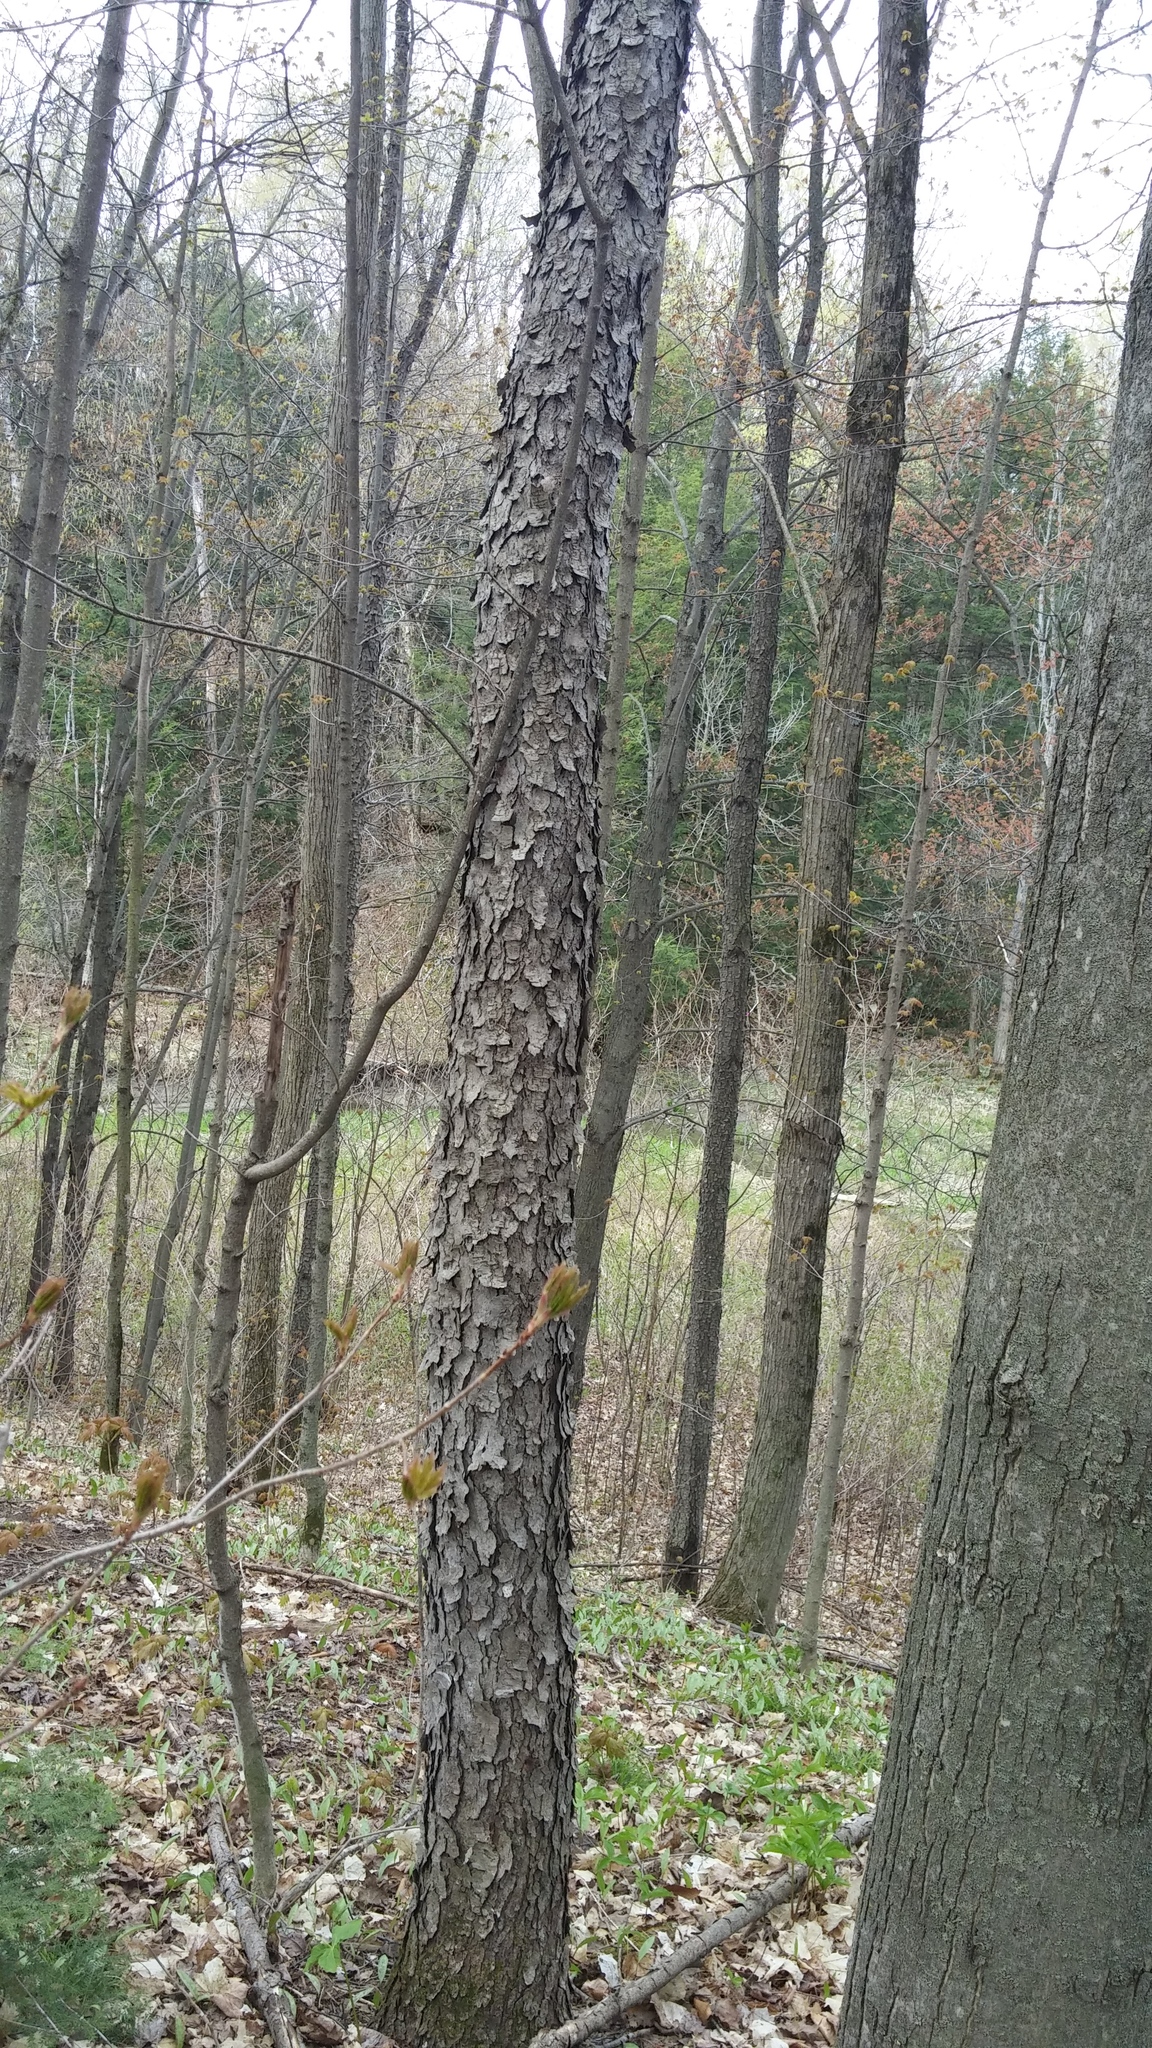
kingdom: Plantae
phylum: Tracheophyta
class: Magnoliopsida
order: Rosales
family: Rosaceae
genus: Prunus
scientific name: Prunus serotina
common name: Black cherry
